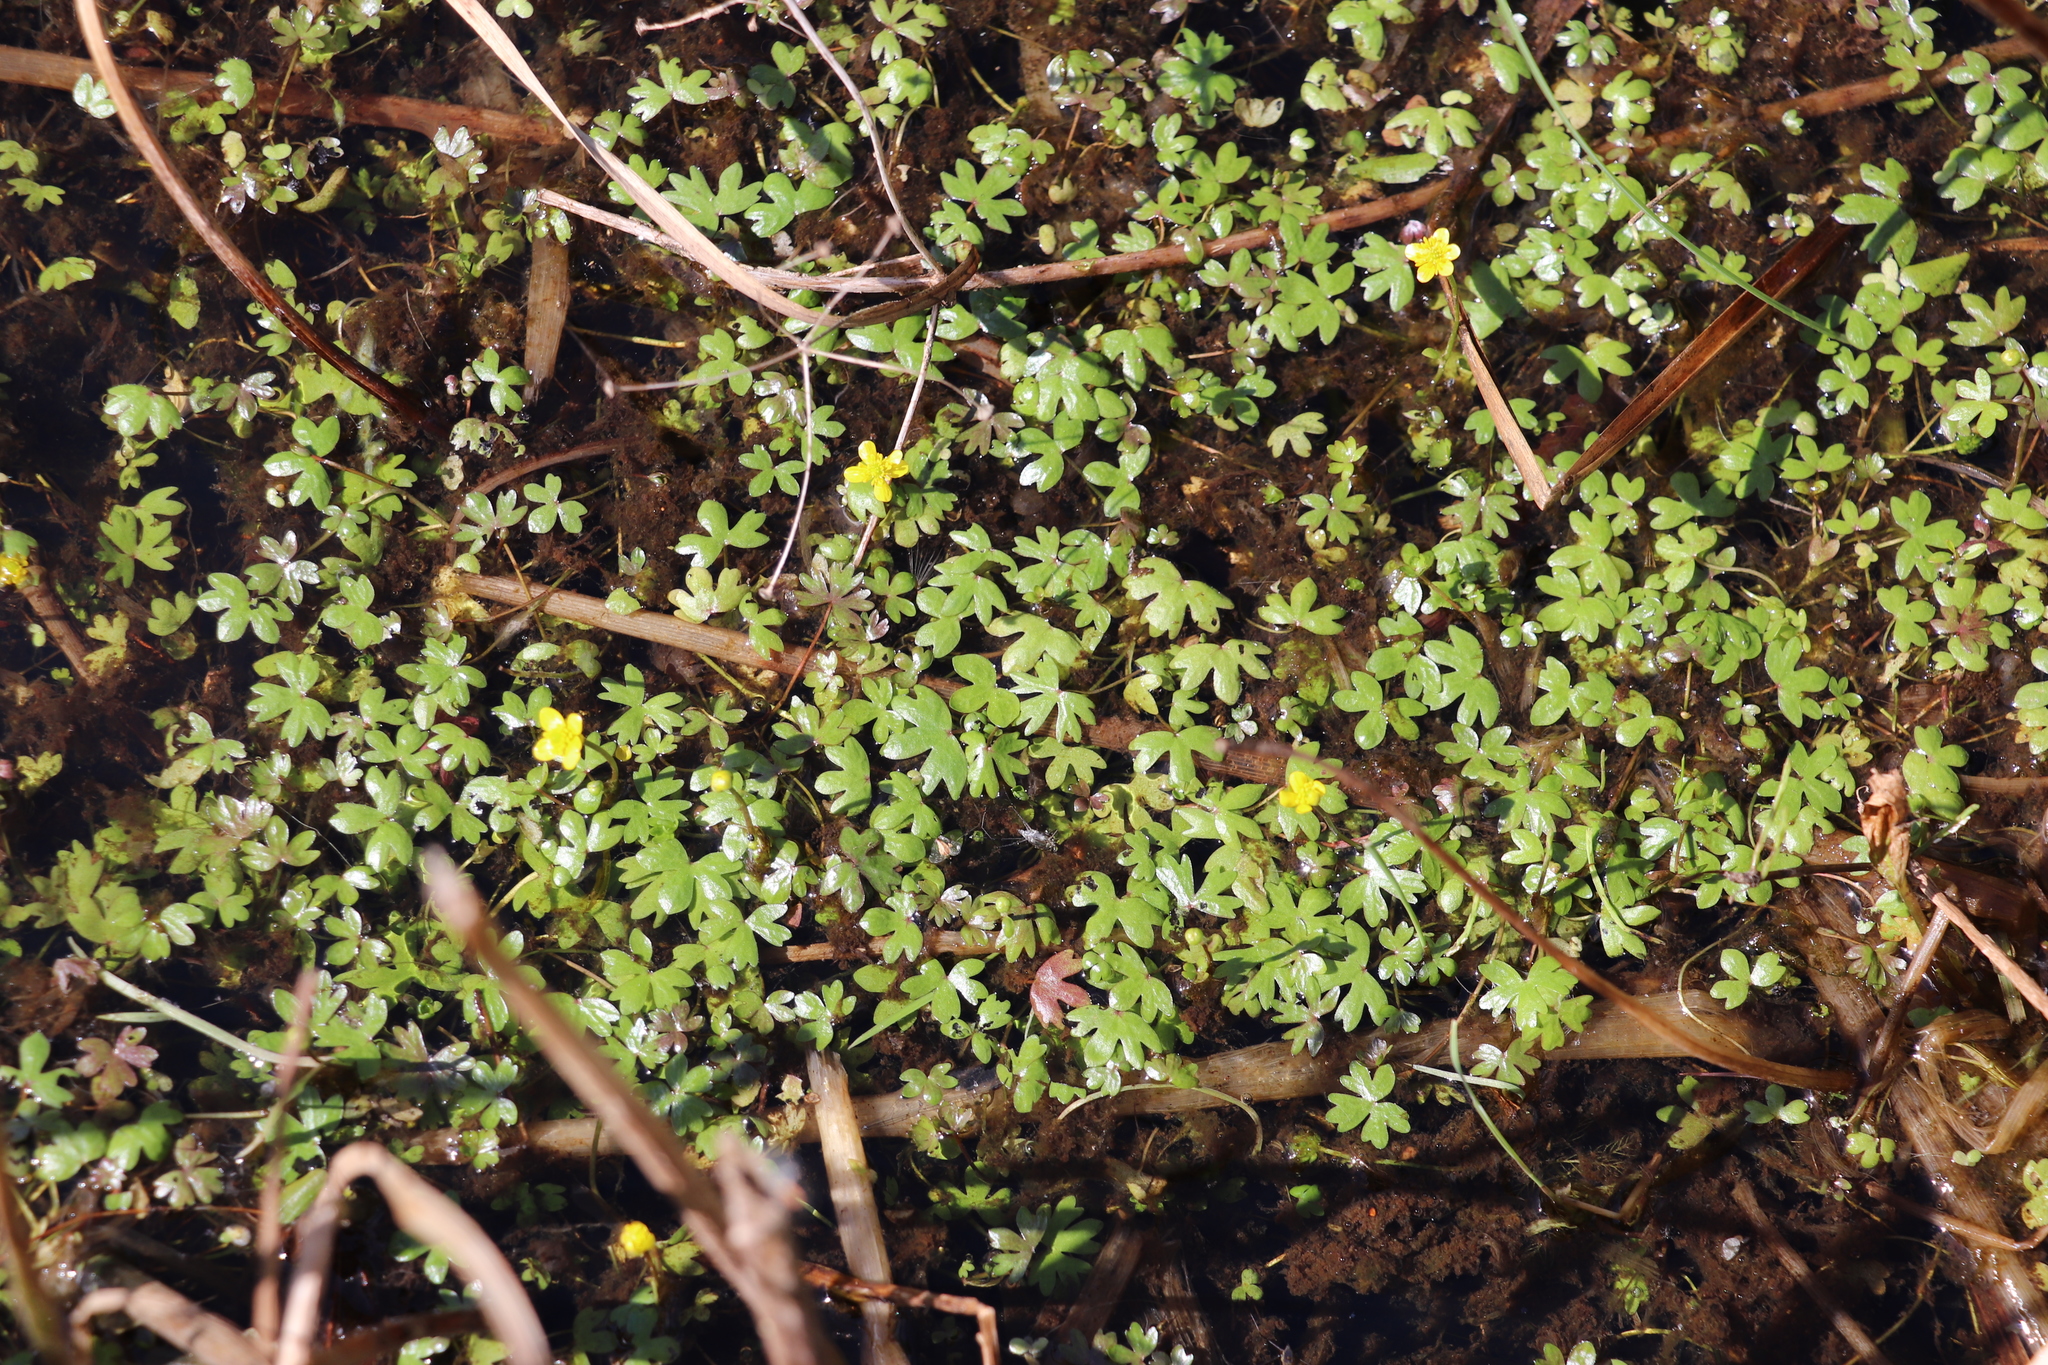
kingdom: Plantae
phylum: Tracheophyta
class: Magnoliopsida
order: Ranunculales
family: Ranunculaceae
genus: Ranunculus
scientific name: Ranunculus gmelinii
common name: Gmelin's buttercup
